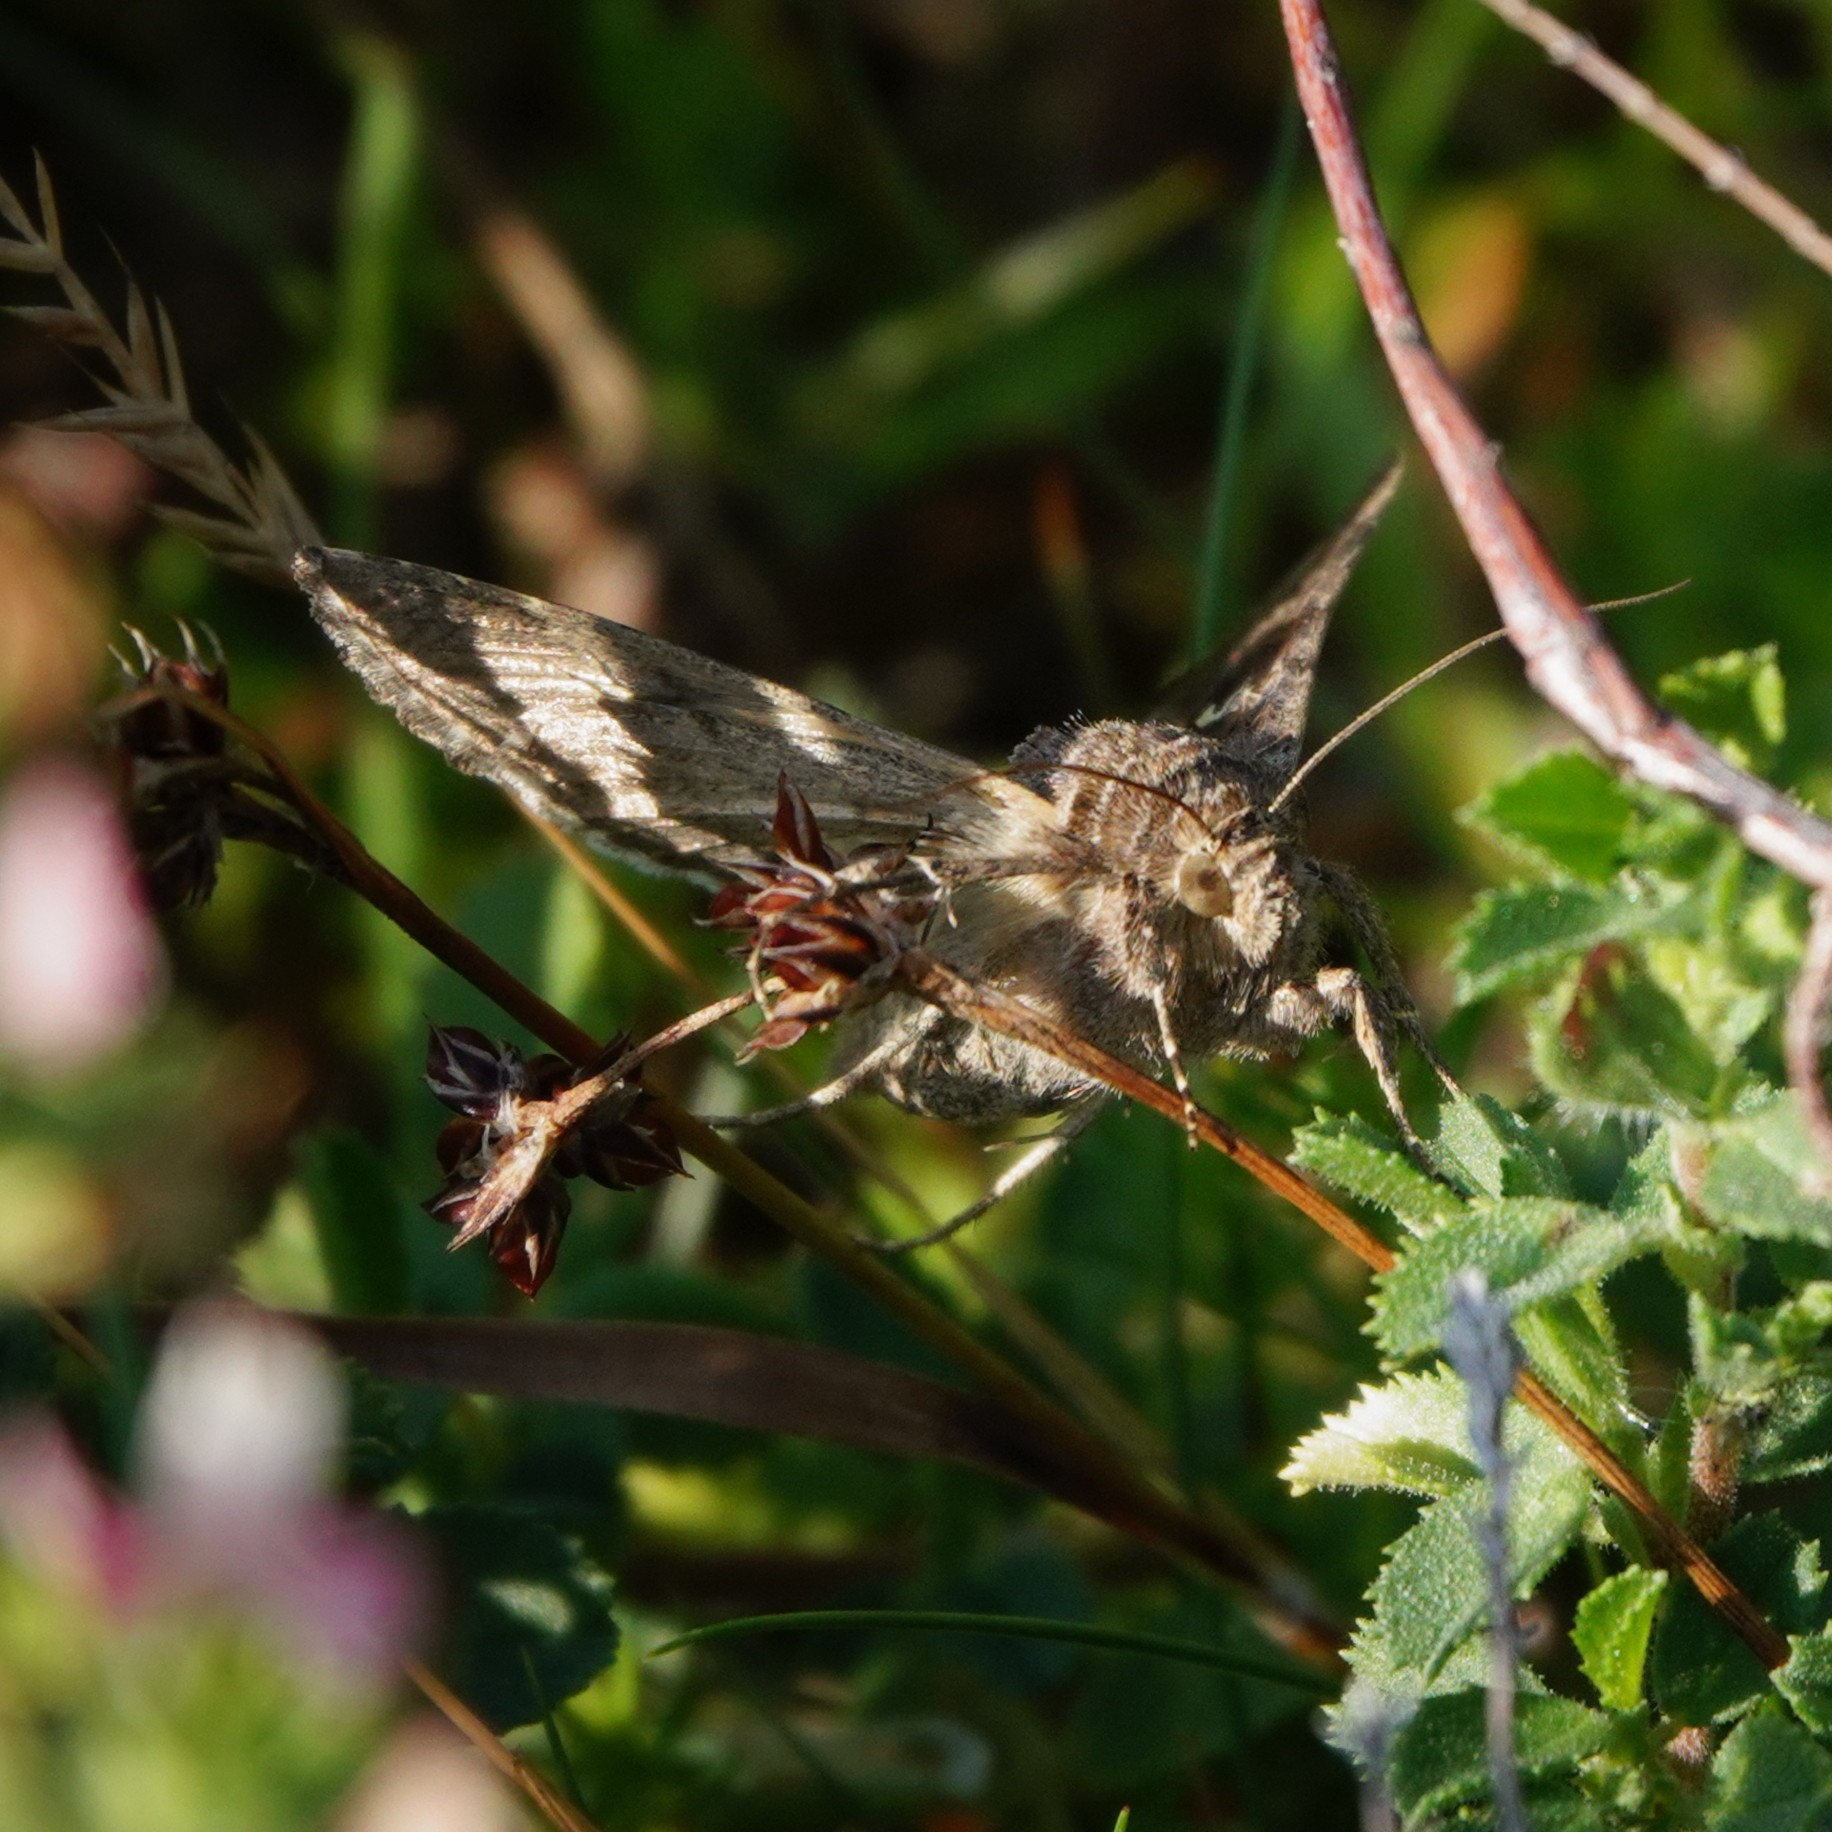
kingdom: Animalia
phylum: Arthropoda
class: Insecta
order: Lepidoptera
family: Noctuidae
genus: Autographa
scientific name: Autographa gamma
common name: Silver y
